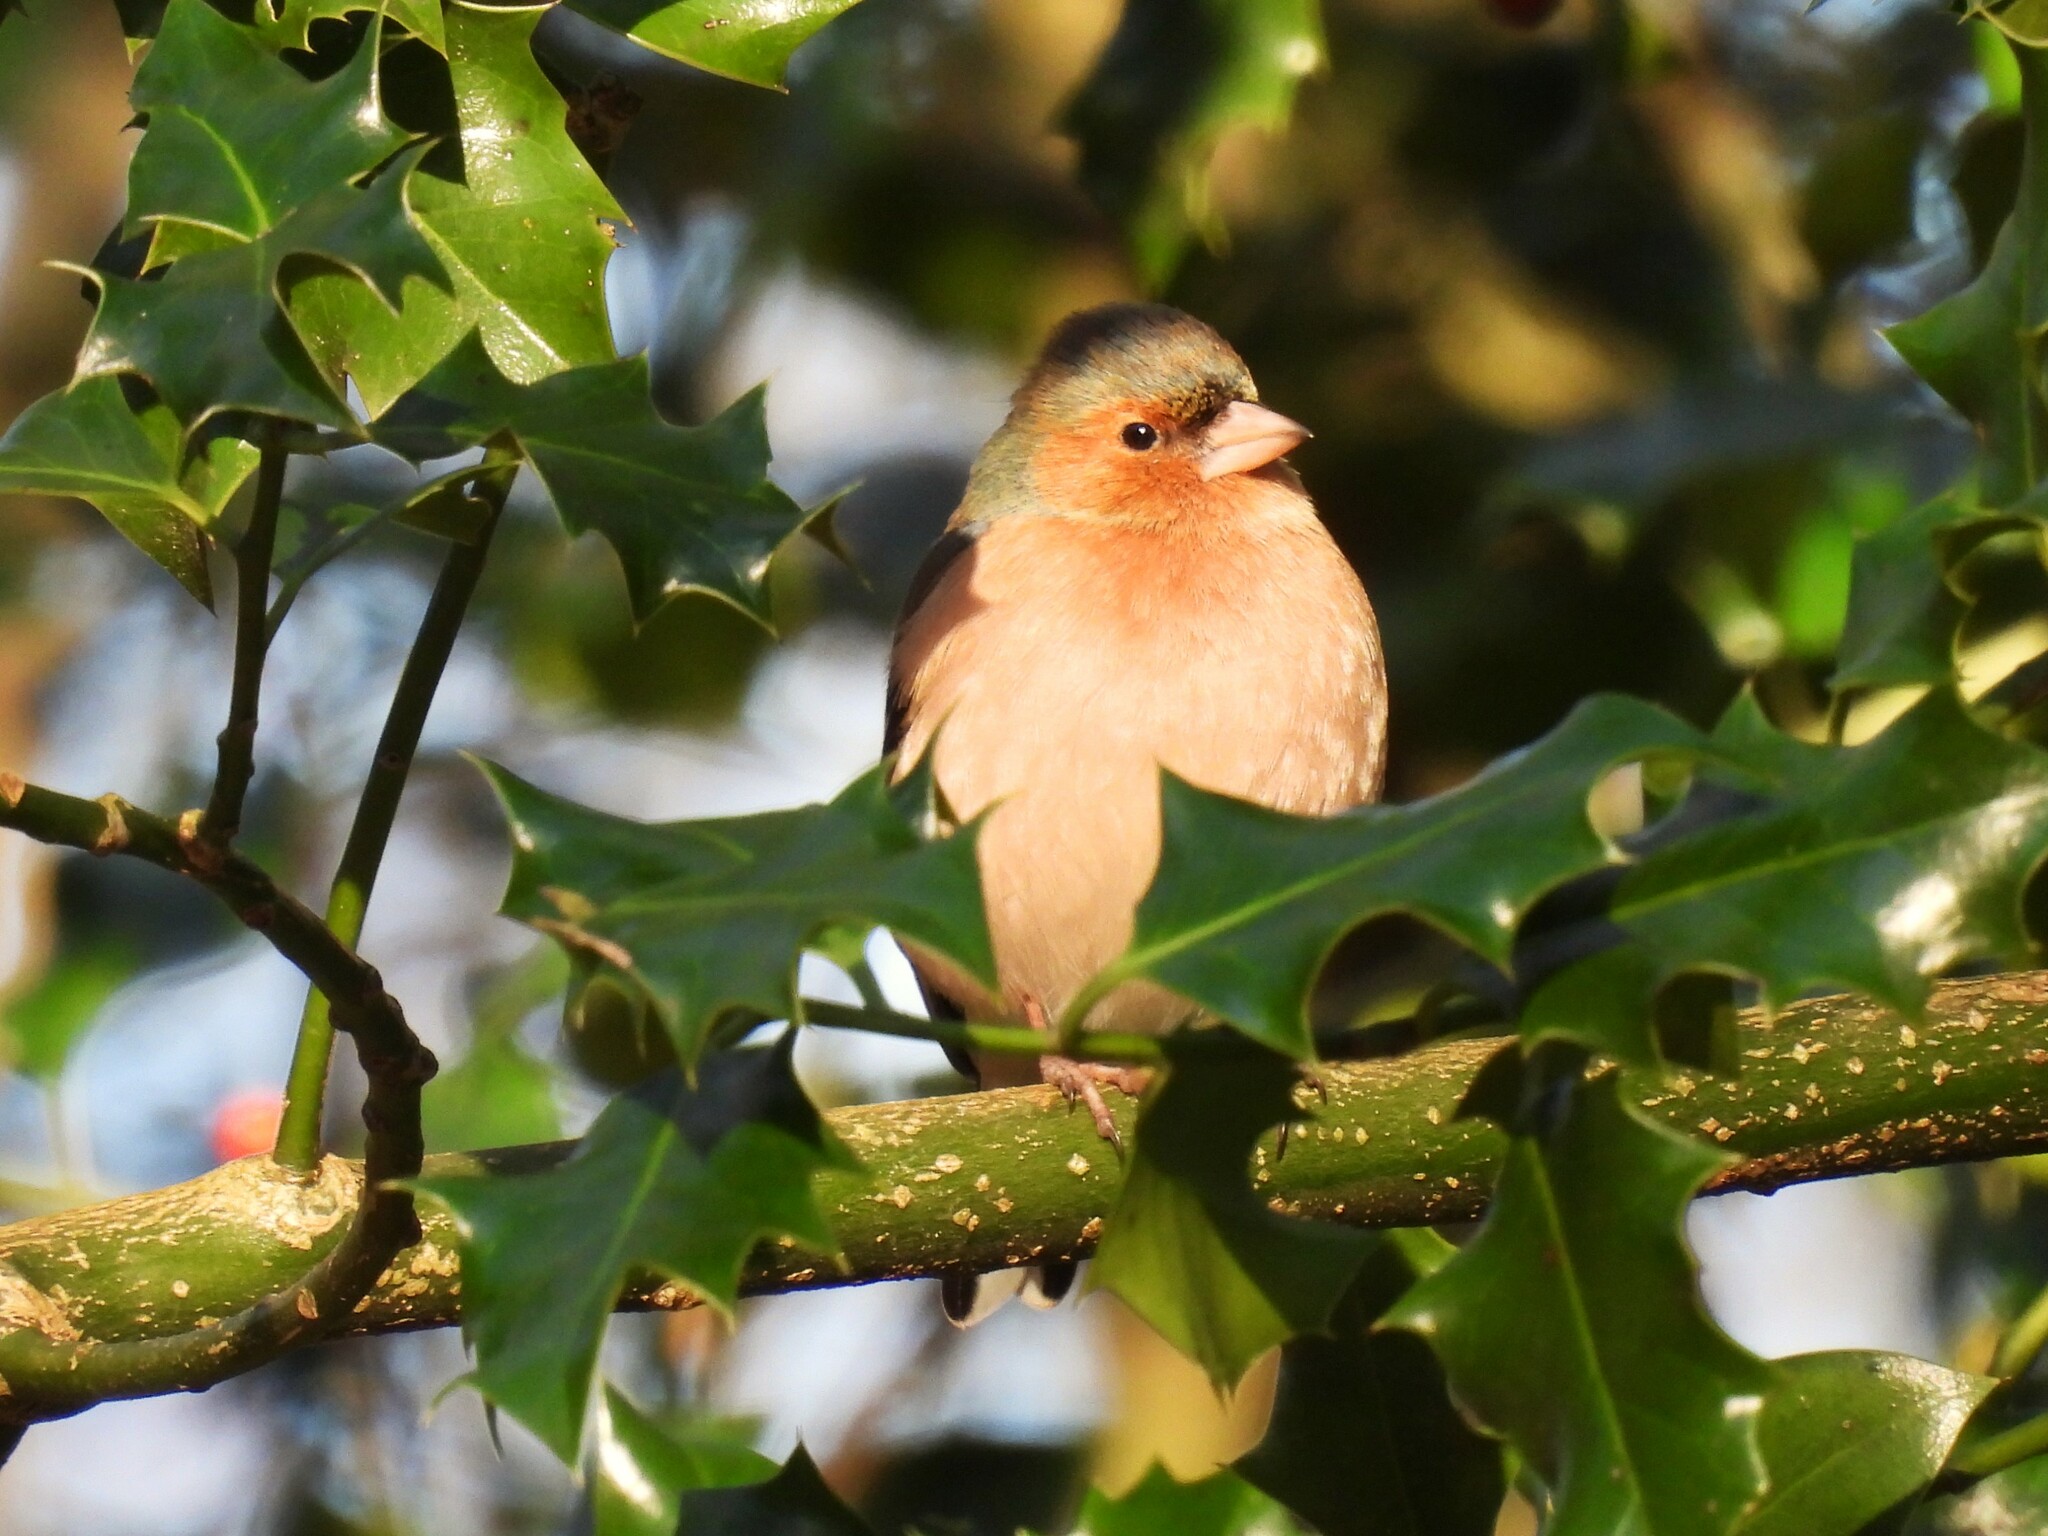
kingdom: Animalia
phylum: Chordata
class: Aves
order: Passeriformes
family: Fringillidae
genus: Fringilla
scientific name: Fringilla coelebs
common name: Common chaffinch
